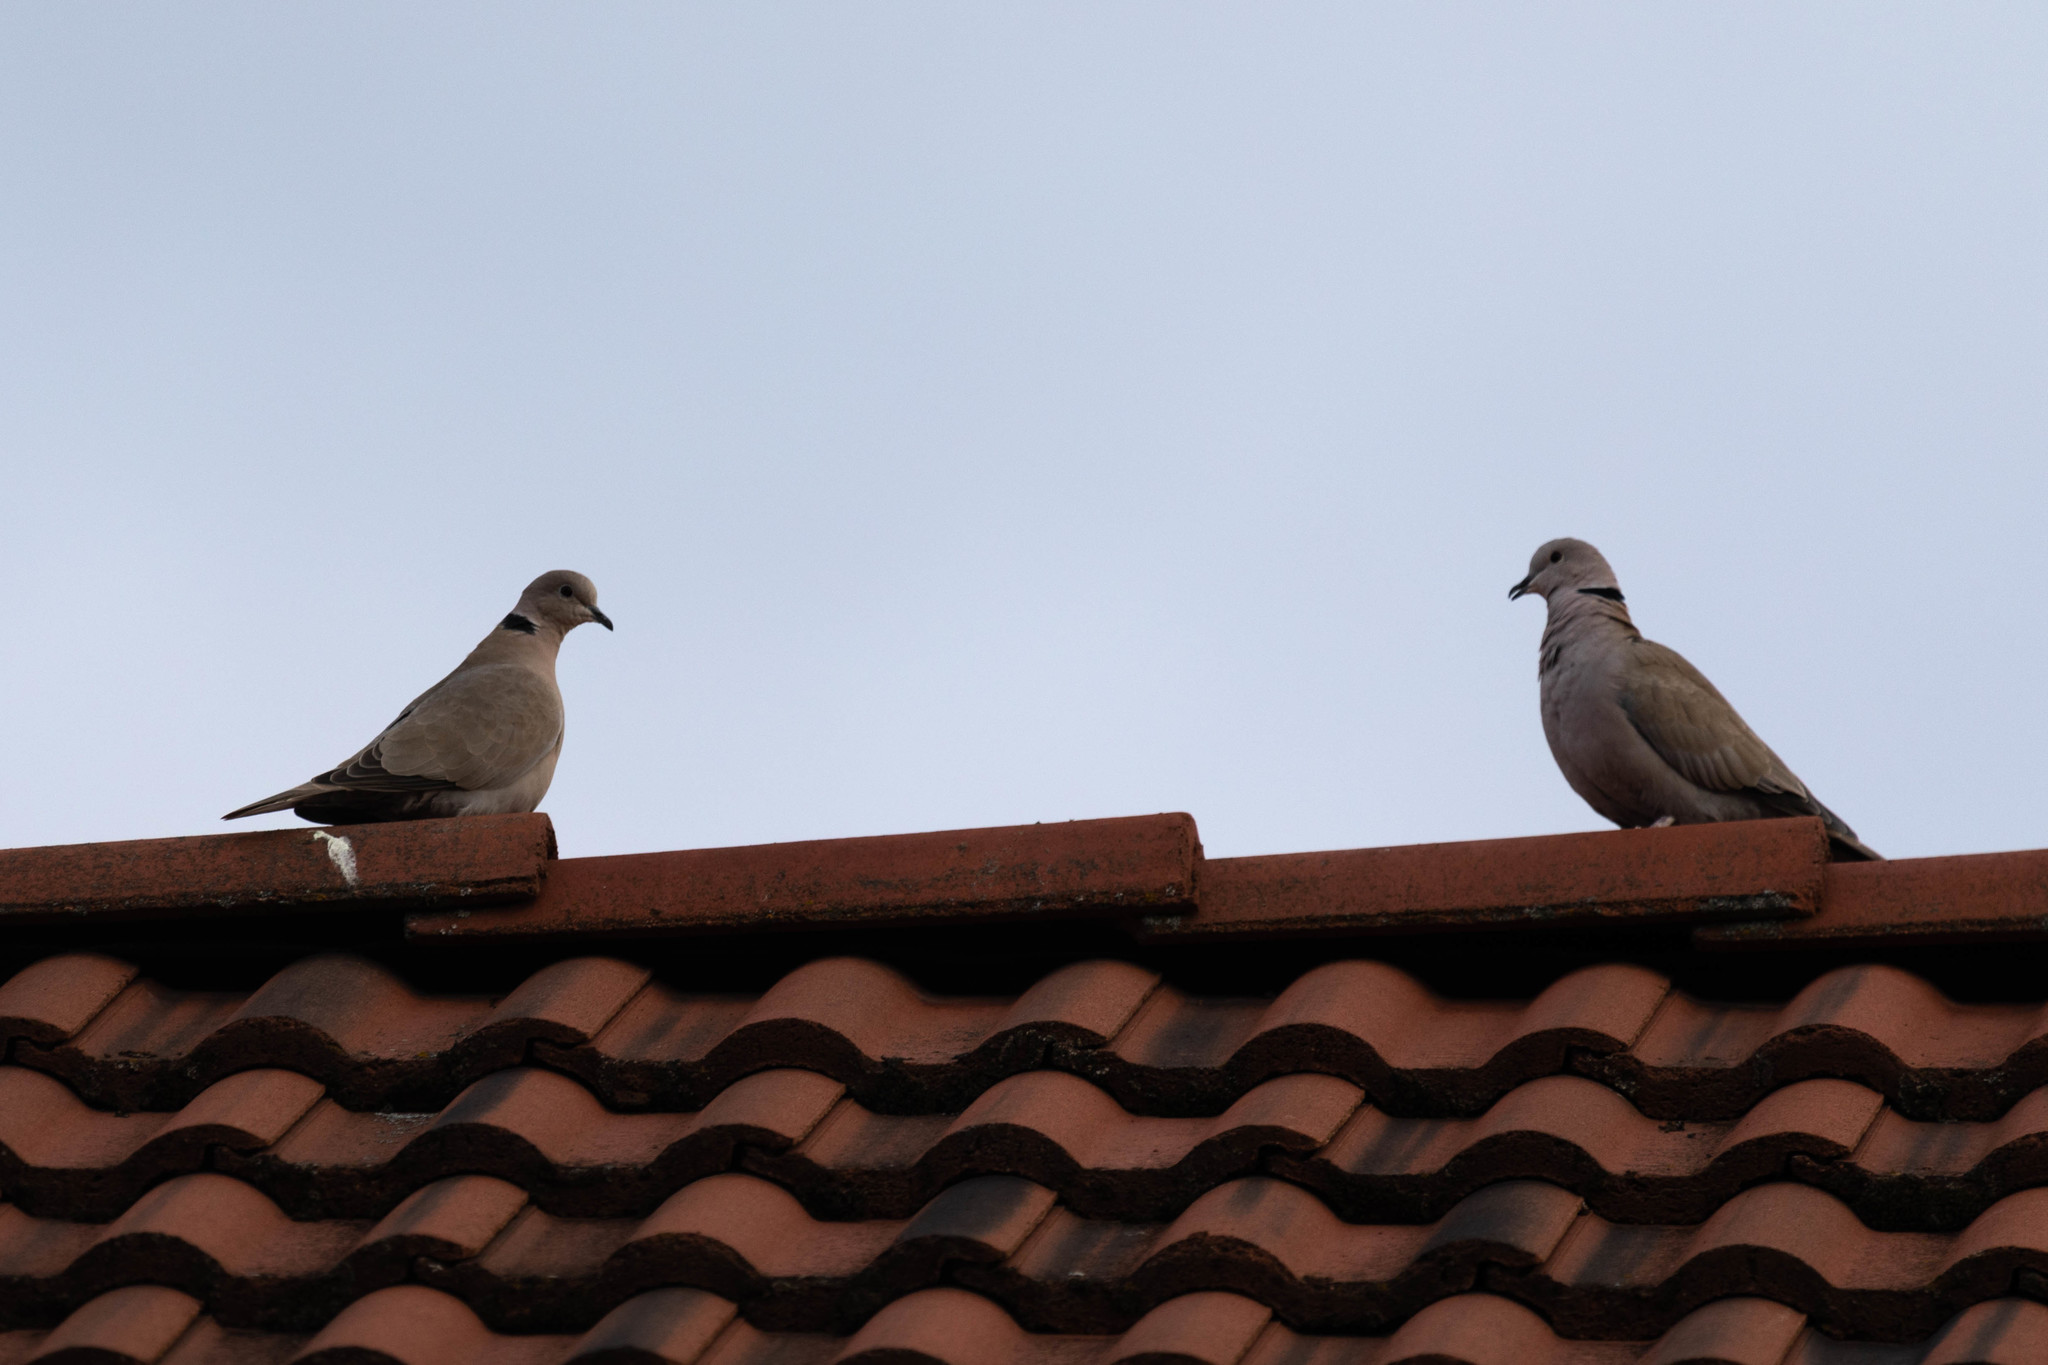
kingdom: Animalia
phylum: Chordata
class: Aves
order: Columbiformes
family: Columbidae
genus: Streptopelia
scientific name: Streptopelia decaocto
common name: Eurasian collared dove
